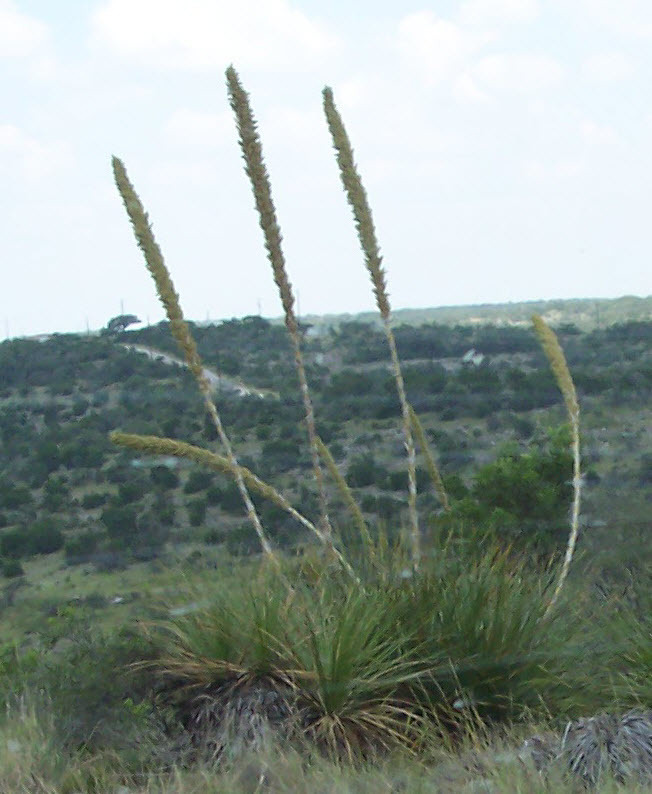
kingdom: Plantae
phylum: Tracheophyta
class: Liliopsida
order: Asparagales
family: Asparagaceae
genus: Dasylirion
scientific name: Dasylirion texanum
